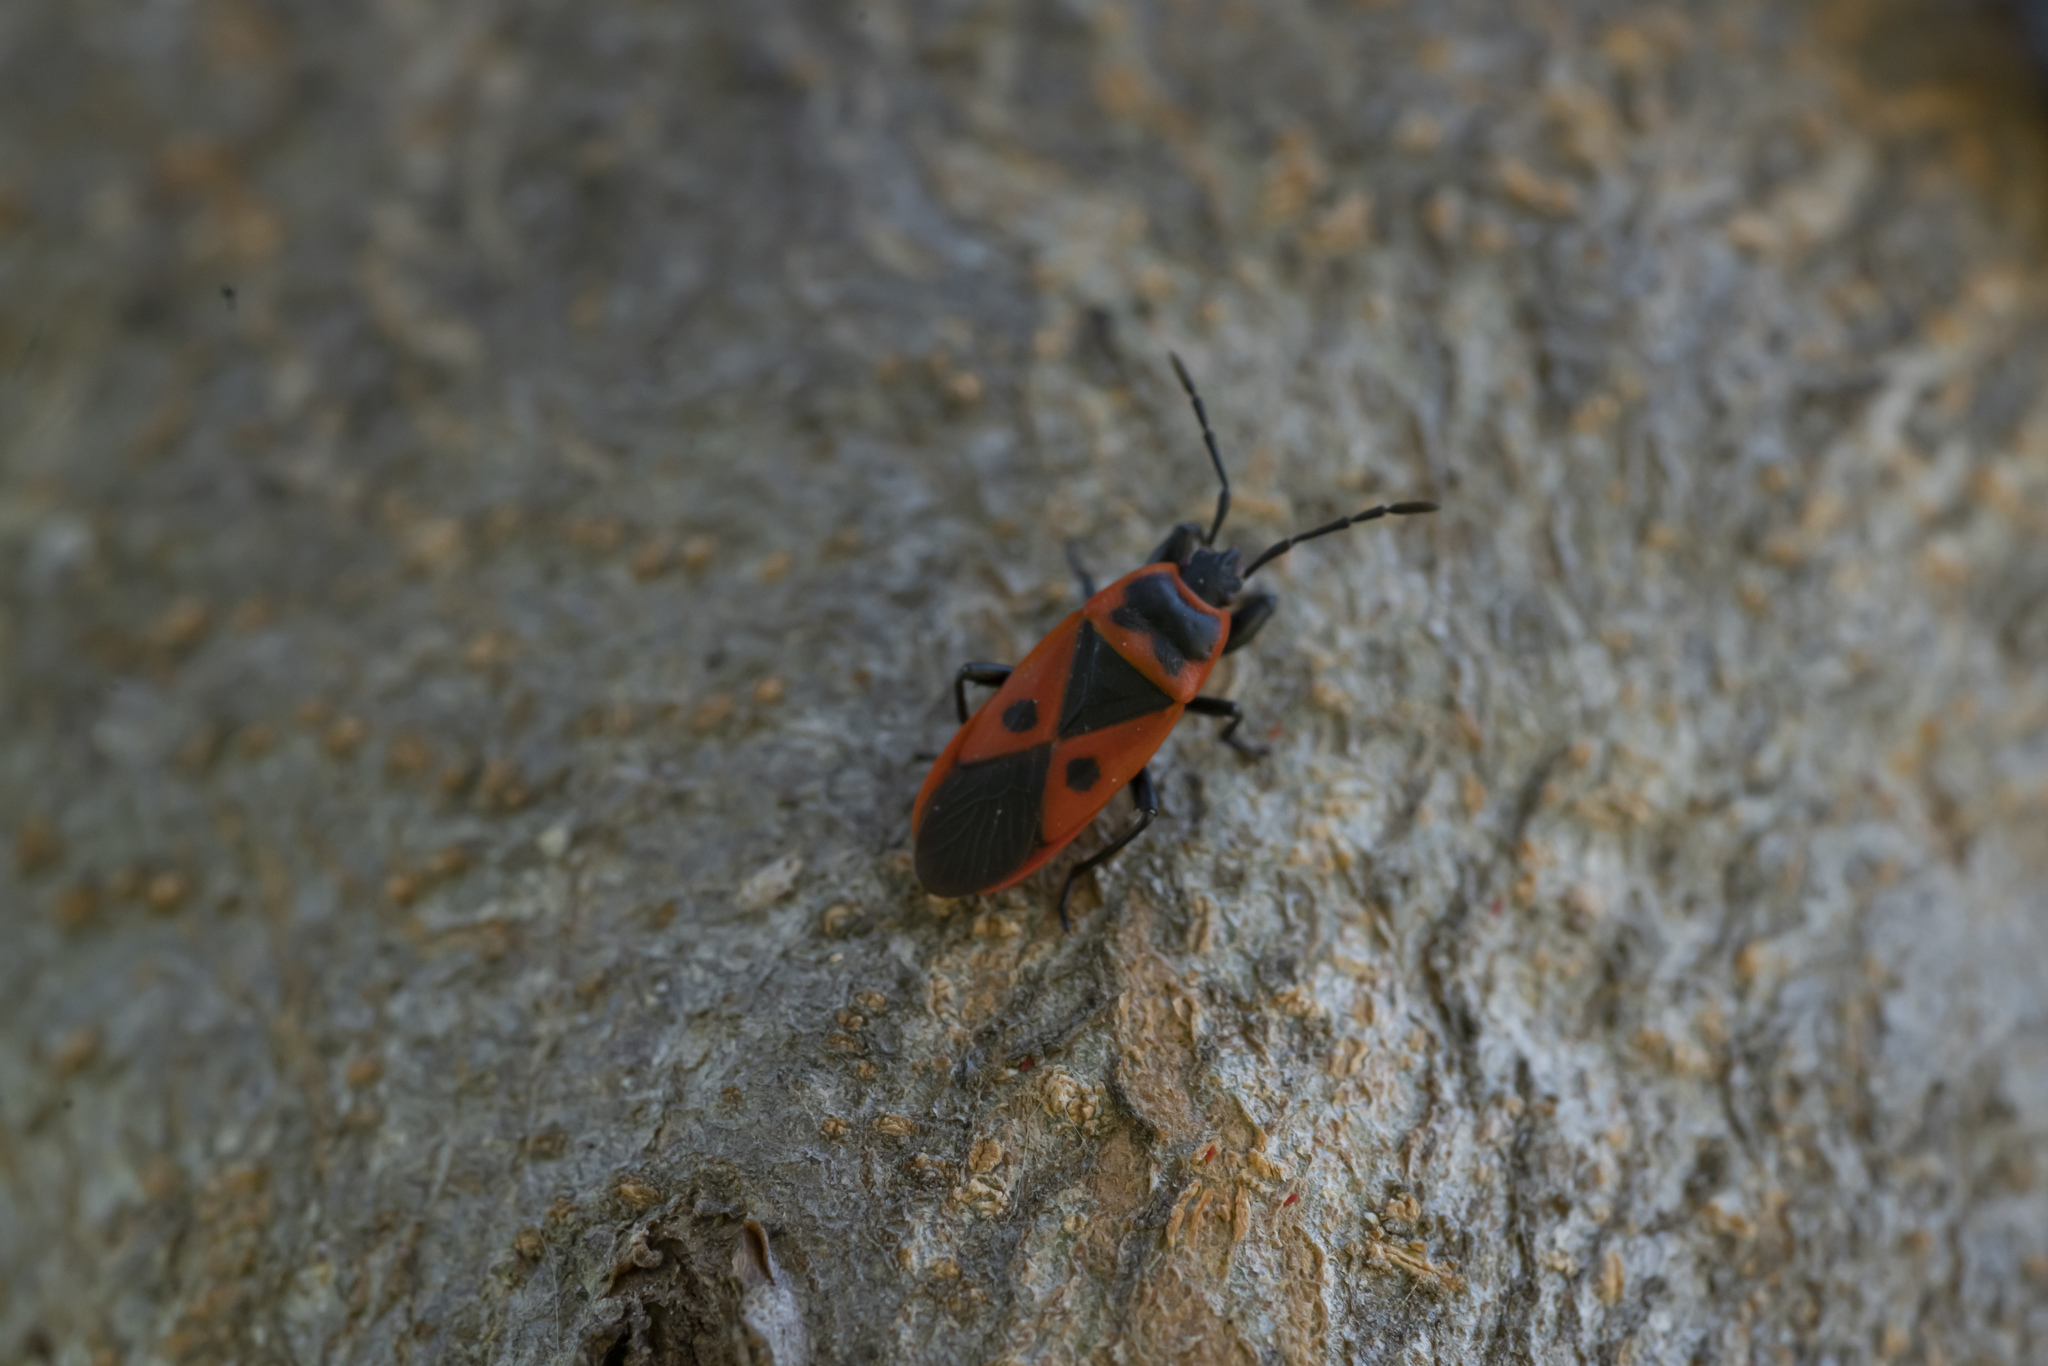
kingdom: Animalia
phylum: Arthropoda
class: Insecta
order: Hemiptera
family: Pyrrhocoridae
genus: Scantius
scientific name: Scantius aegyptius
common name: Red bug
